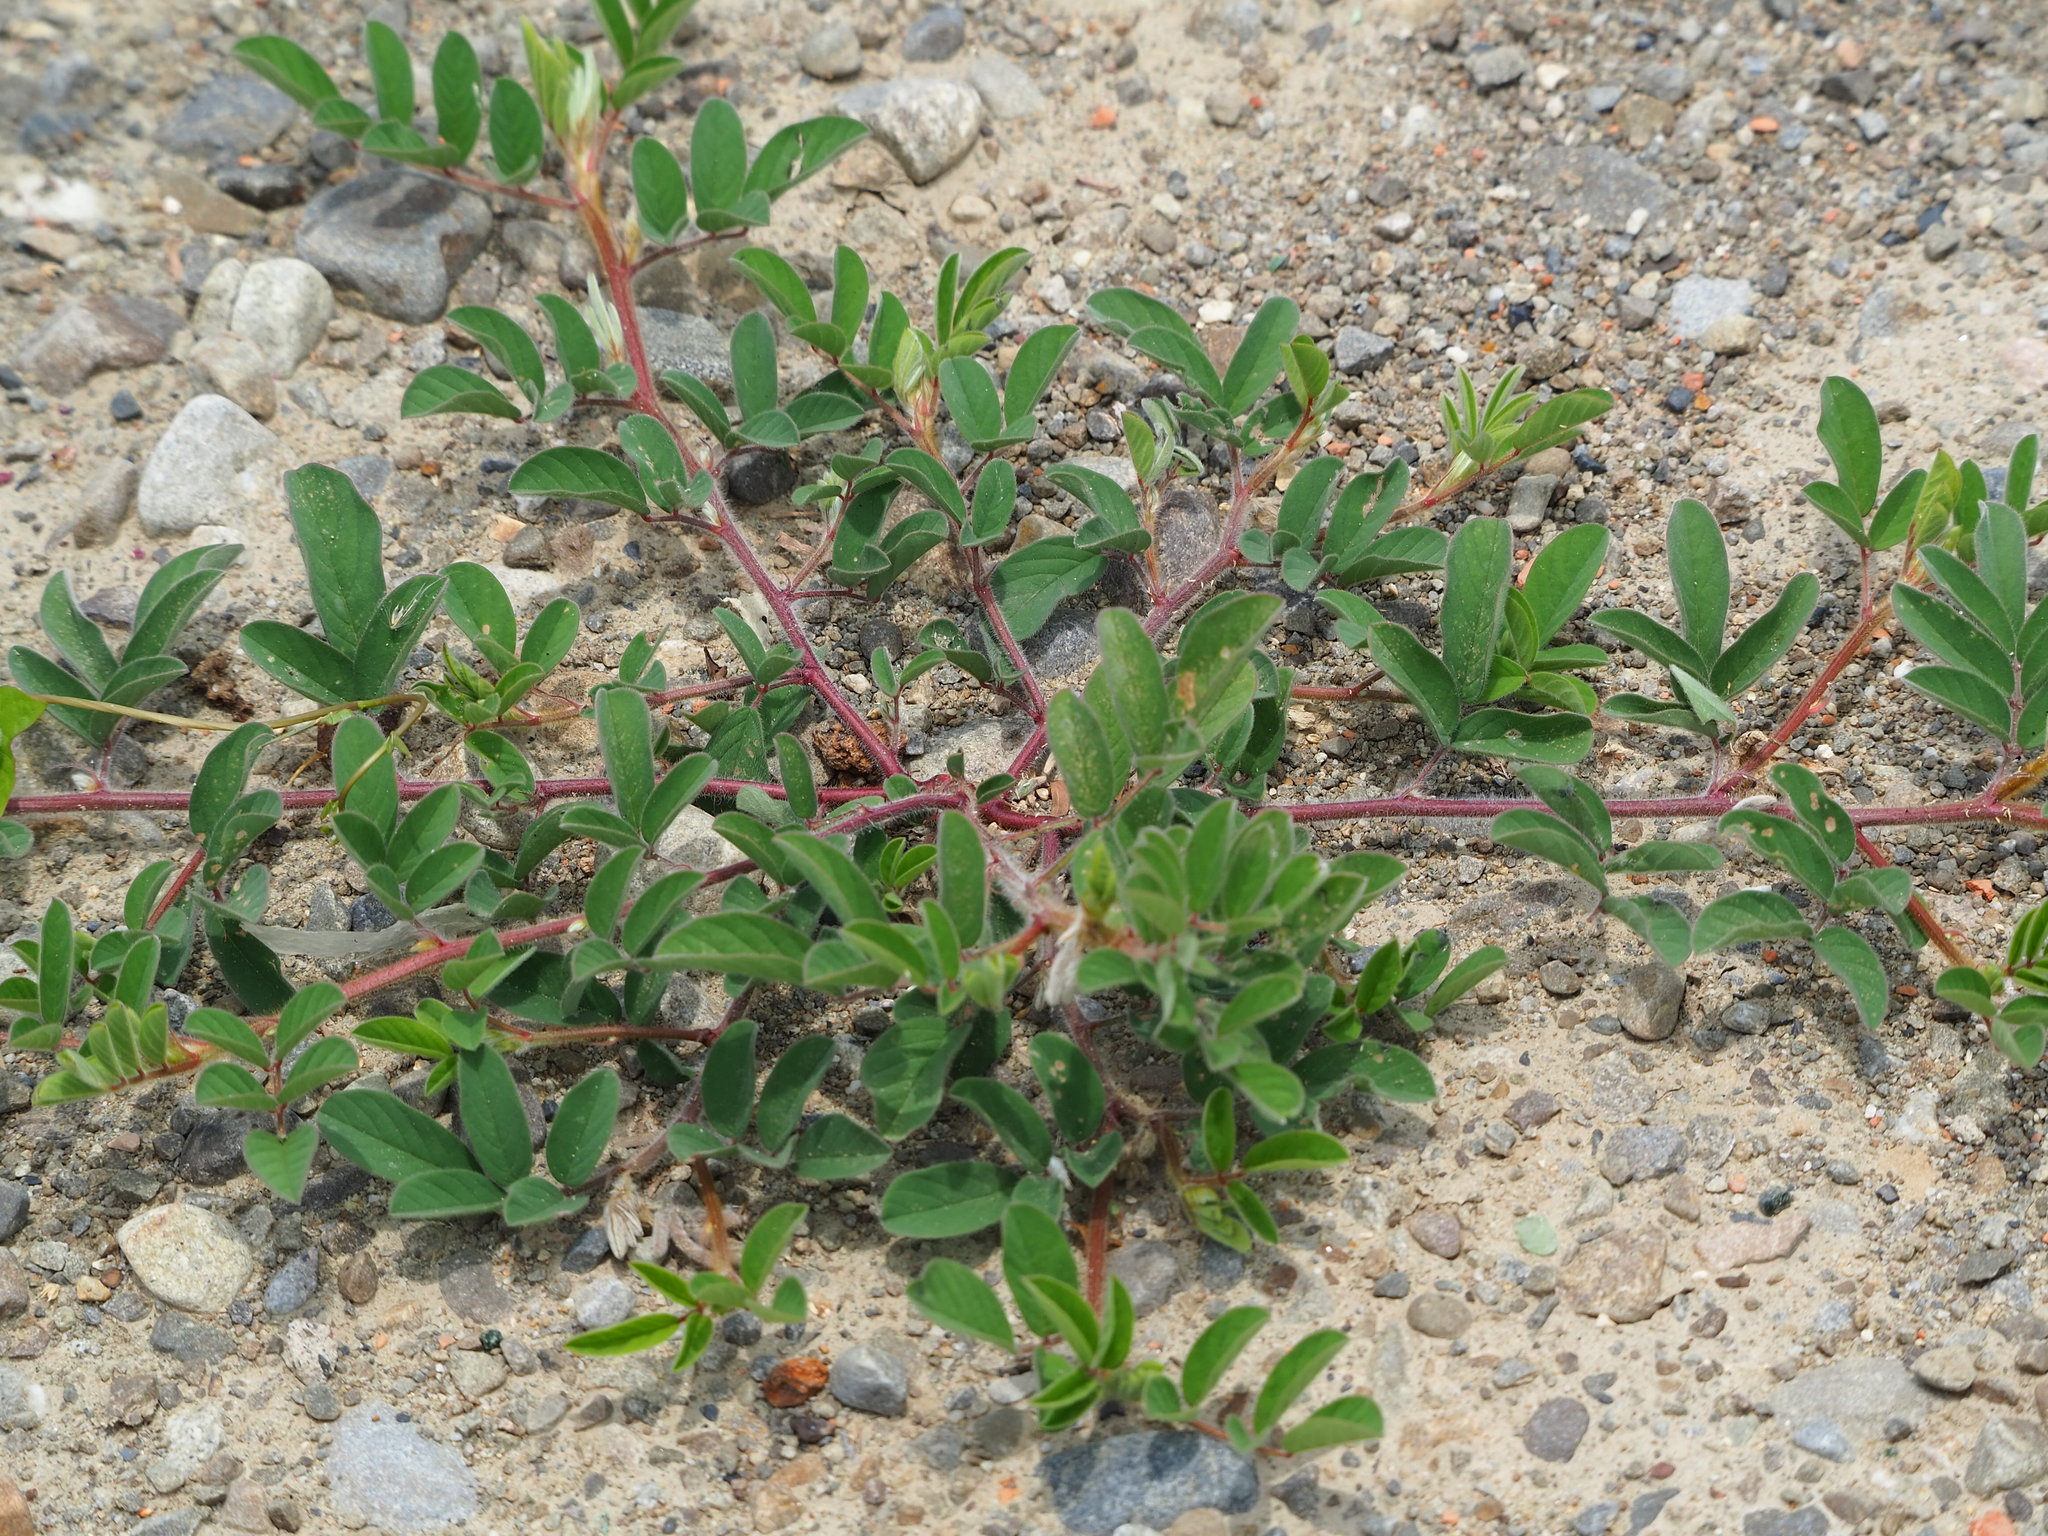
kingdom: Plantae
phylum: Tracheophyta
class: Magnoliopsida
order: Fabales
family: Fabaceae
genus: Indigofera
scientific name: Indigofera spicata
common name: Creeping indigo
